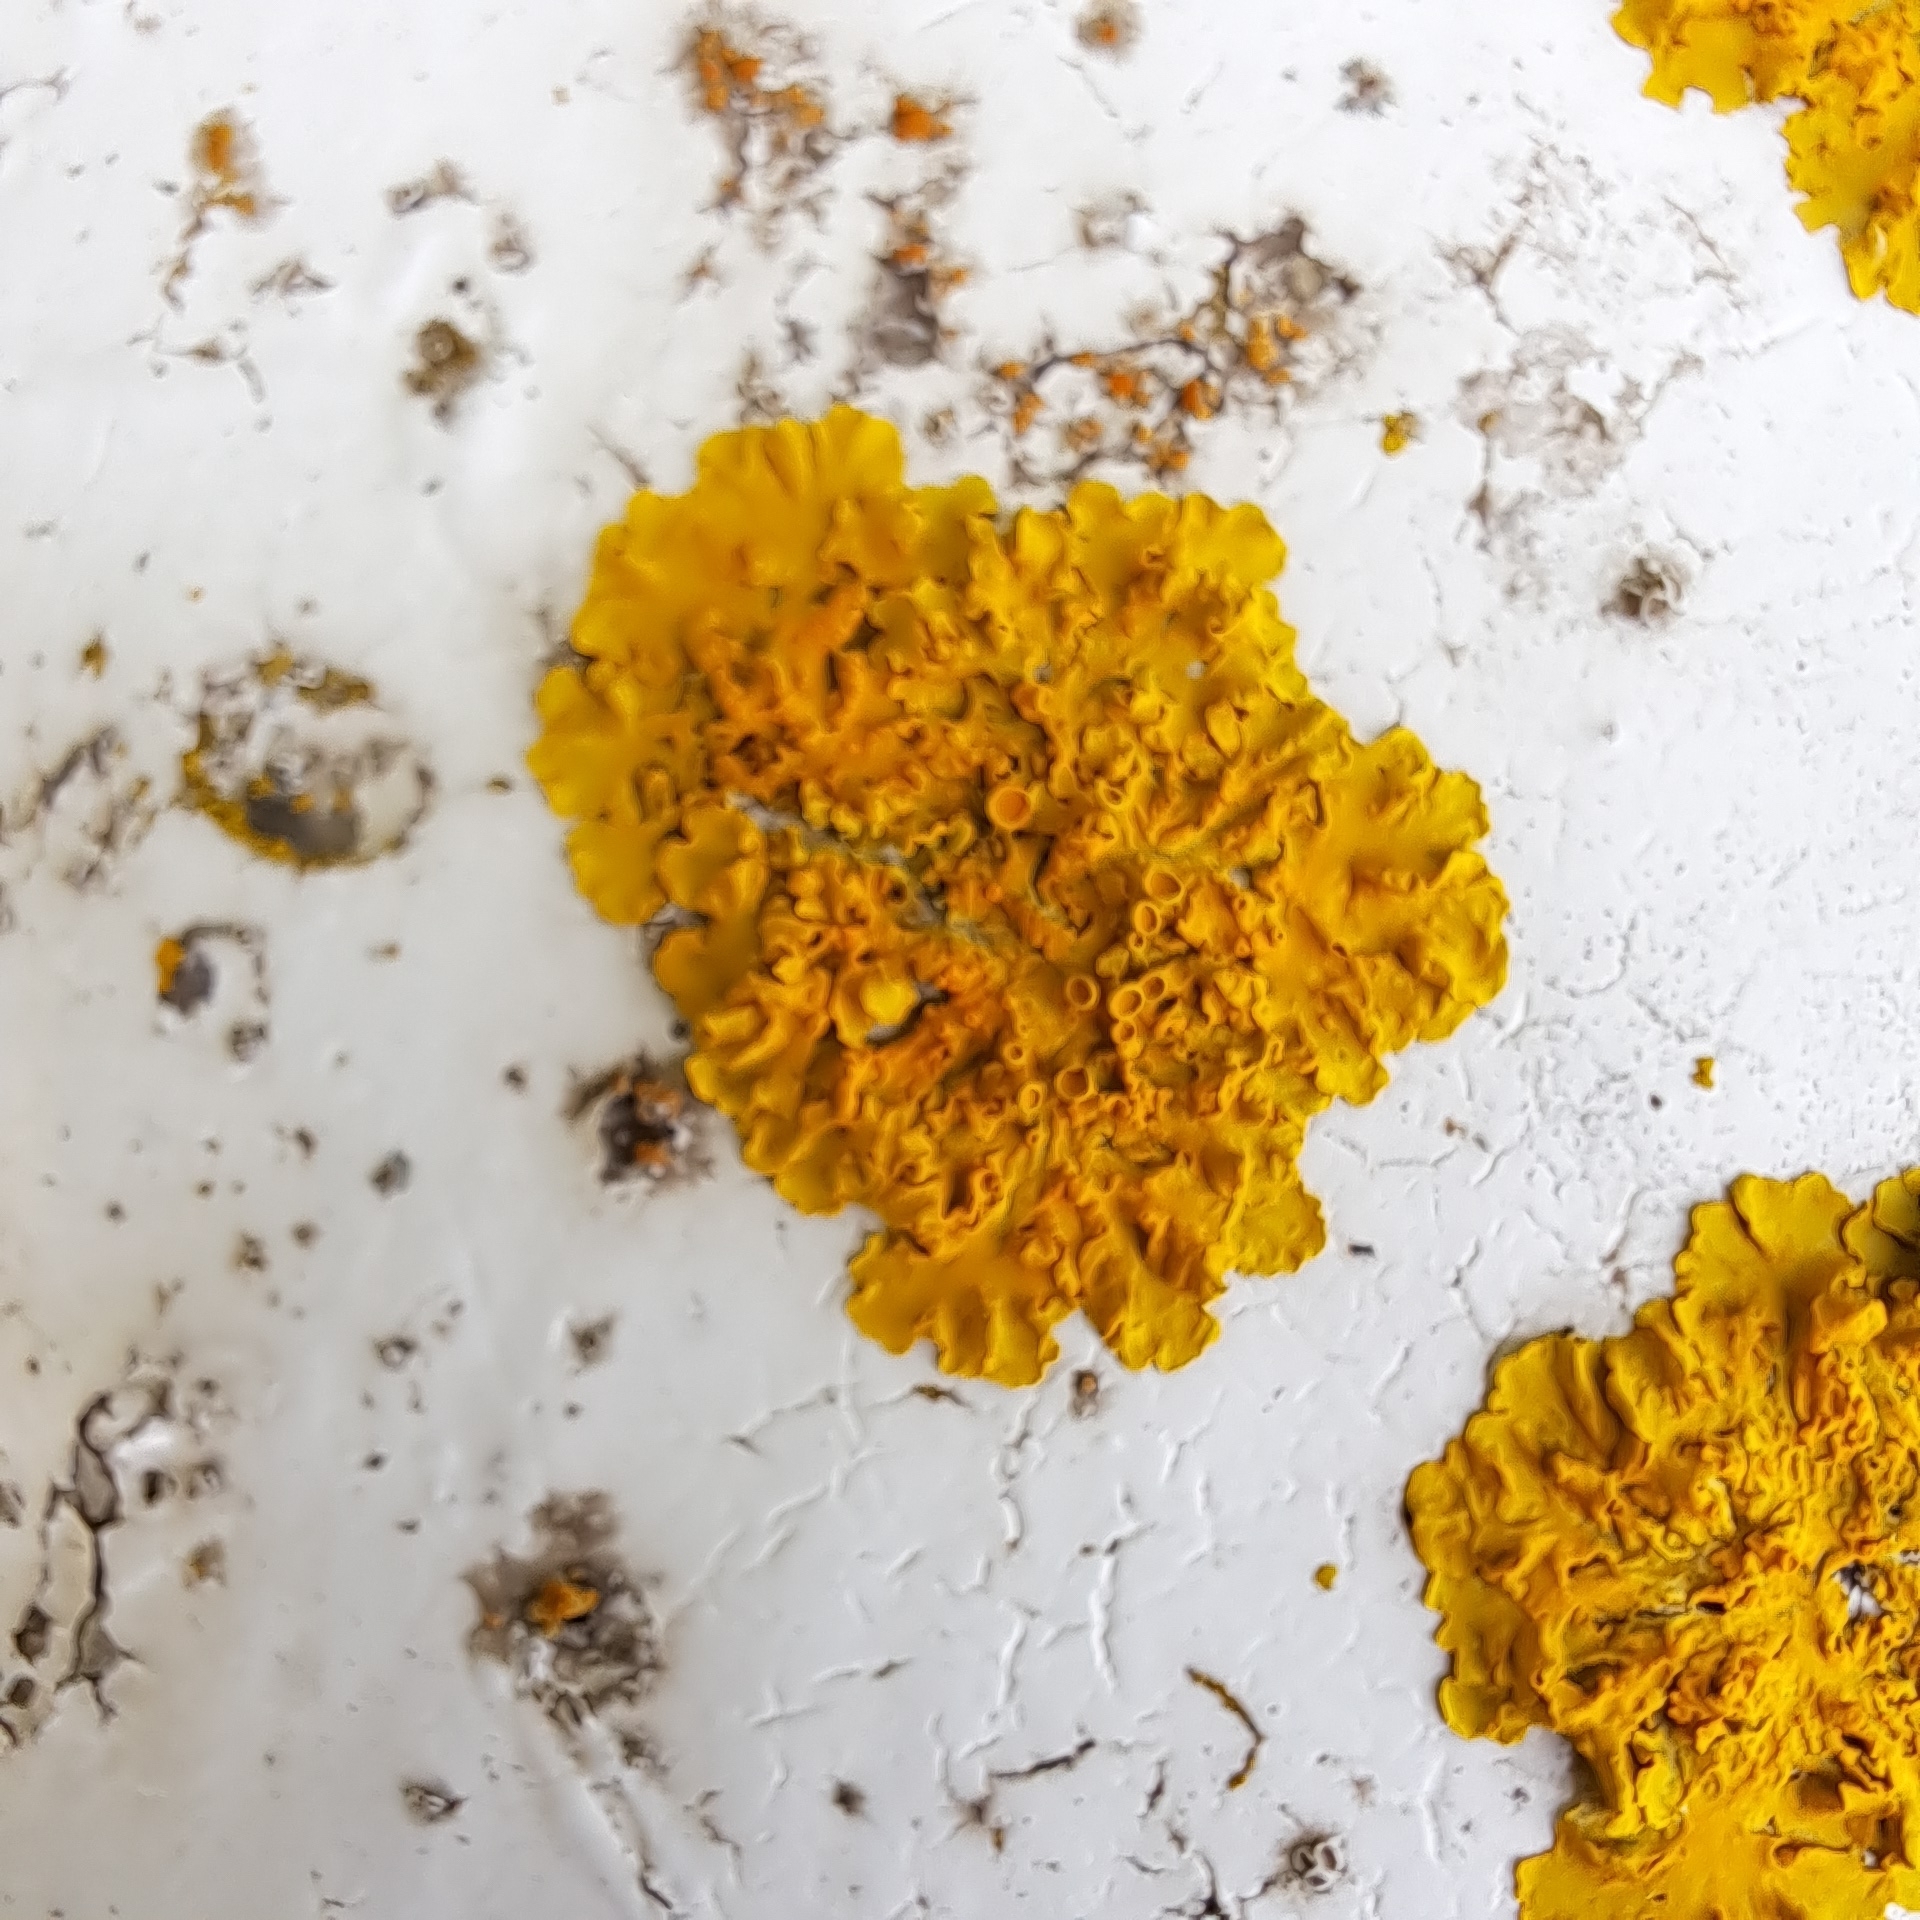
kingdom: Fungi
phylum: Ascomycota
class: Lecanoromycetes
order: Teloschistales
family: Teloschistaceae
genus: Xanthoria
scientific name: Xanthoria parietina
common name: Common orange lichen
